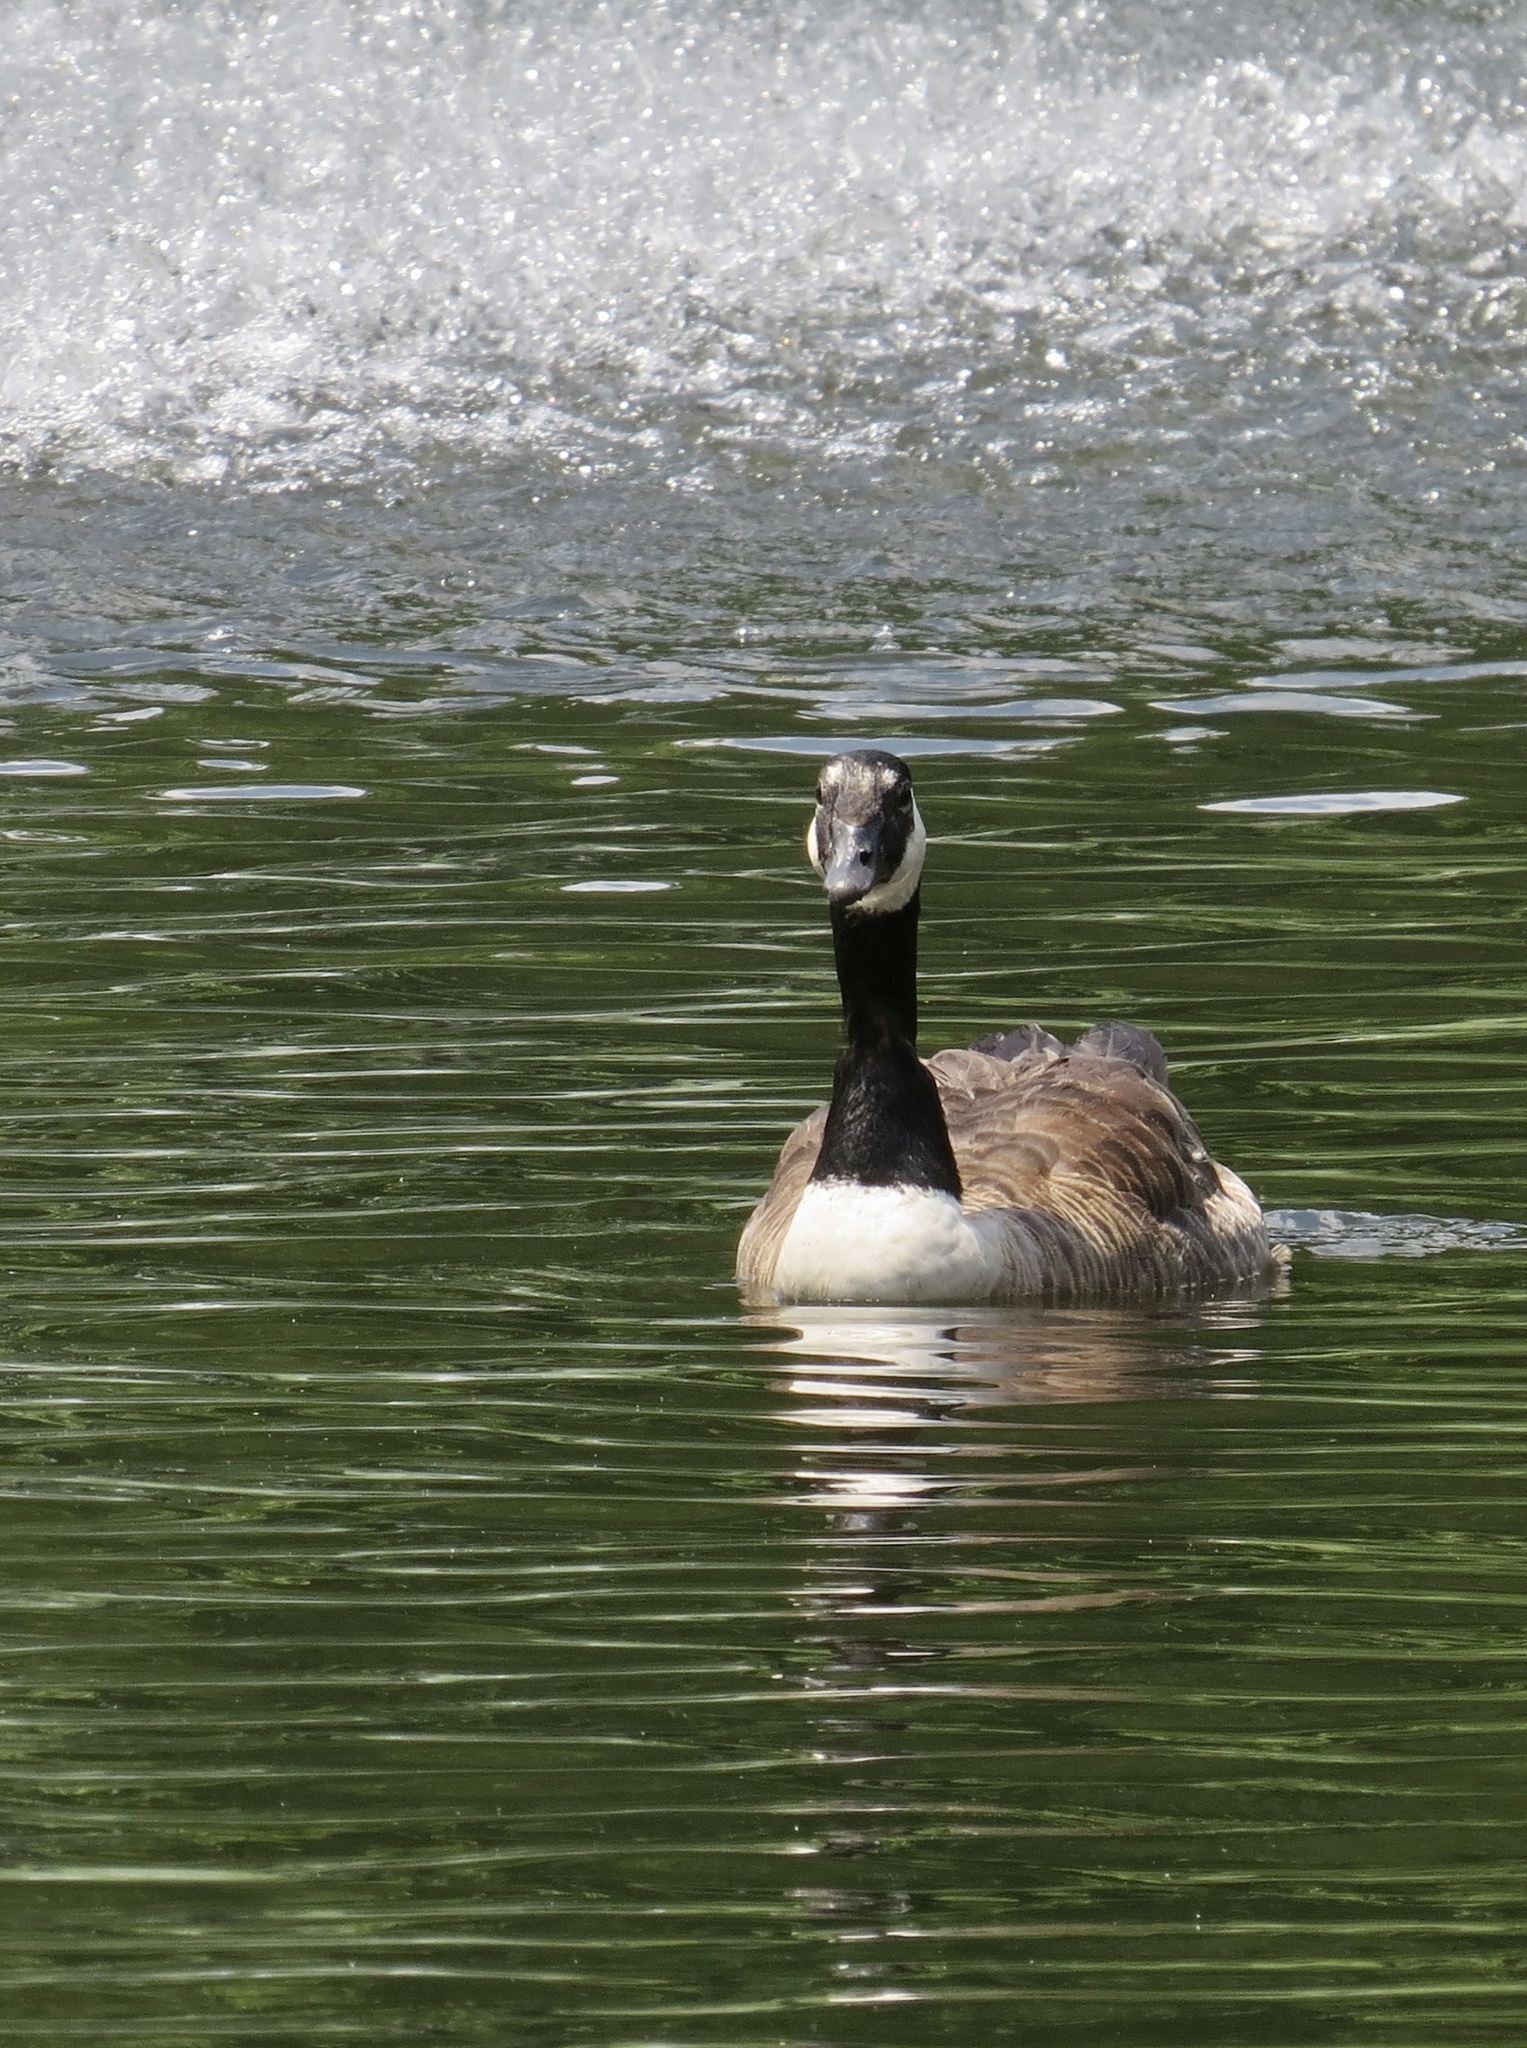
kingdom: Animalia
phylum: Chordata
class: Aves
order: Anseriformes
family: Anatidae
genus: Branta
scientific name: Branta canadensis
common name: Canada goose
